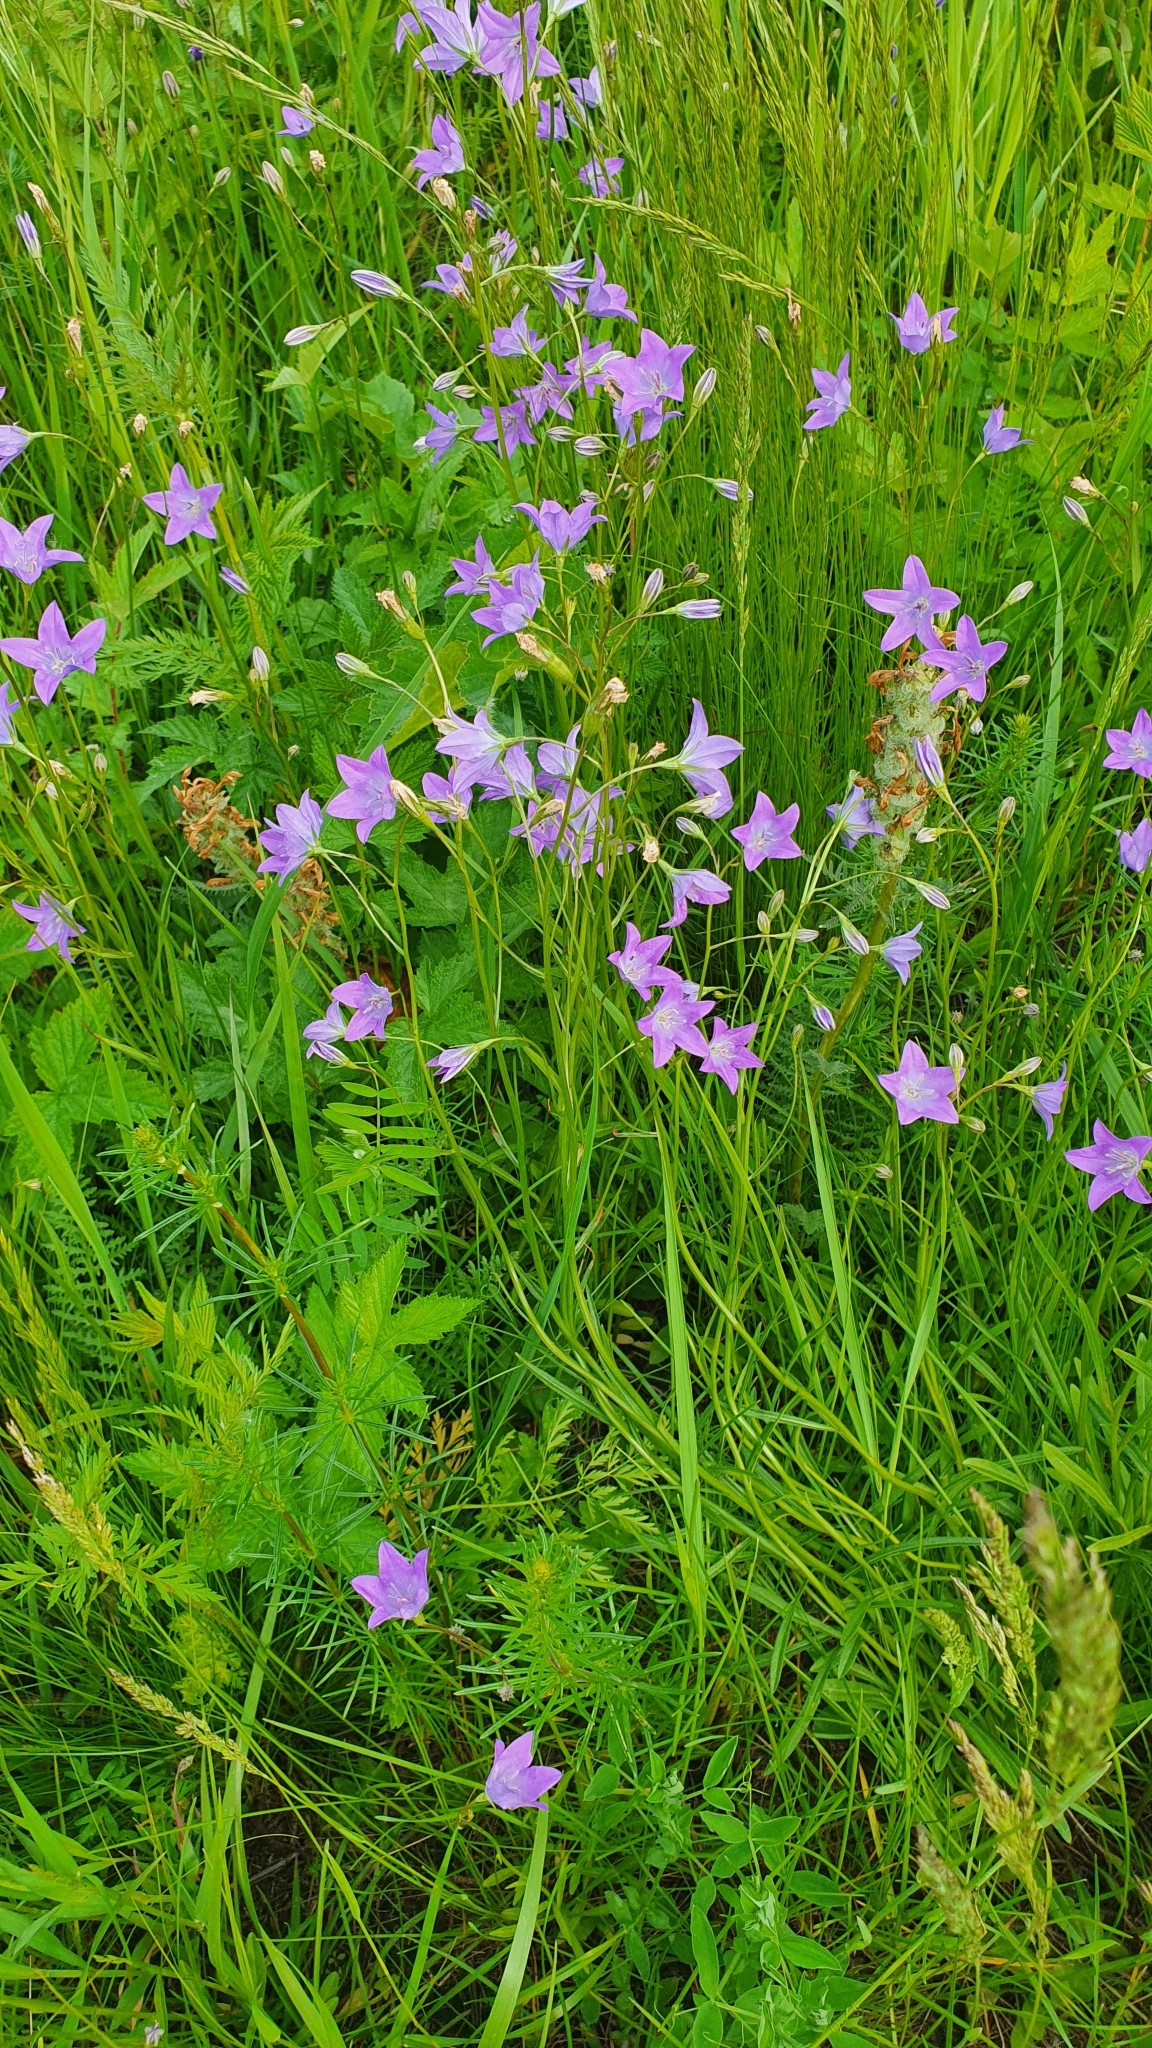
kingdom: Plantae
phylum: Tracheophyta
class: Magnoliopsida
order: Asterales
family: Campanulaceae
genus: Campanula
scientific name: Campanula stevenii
